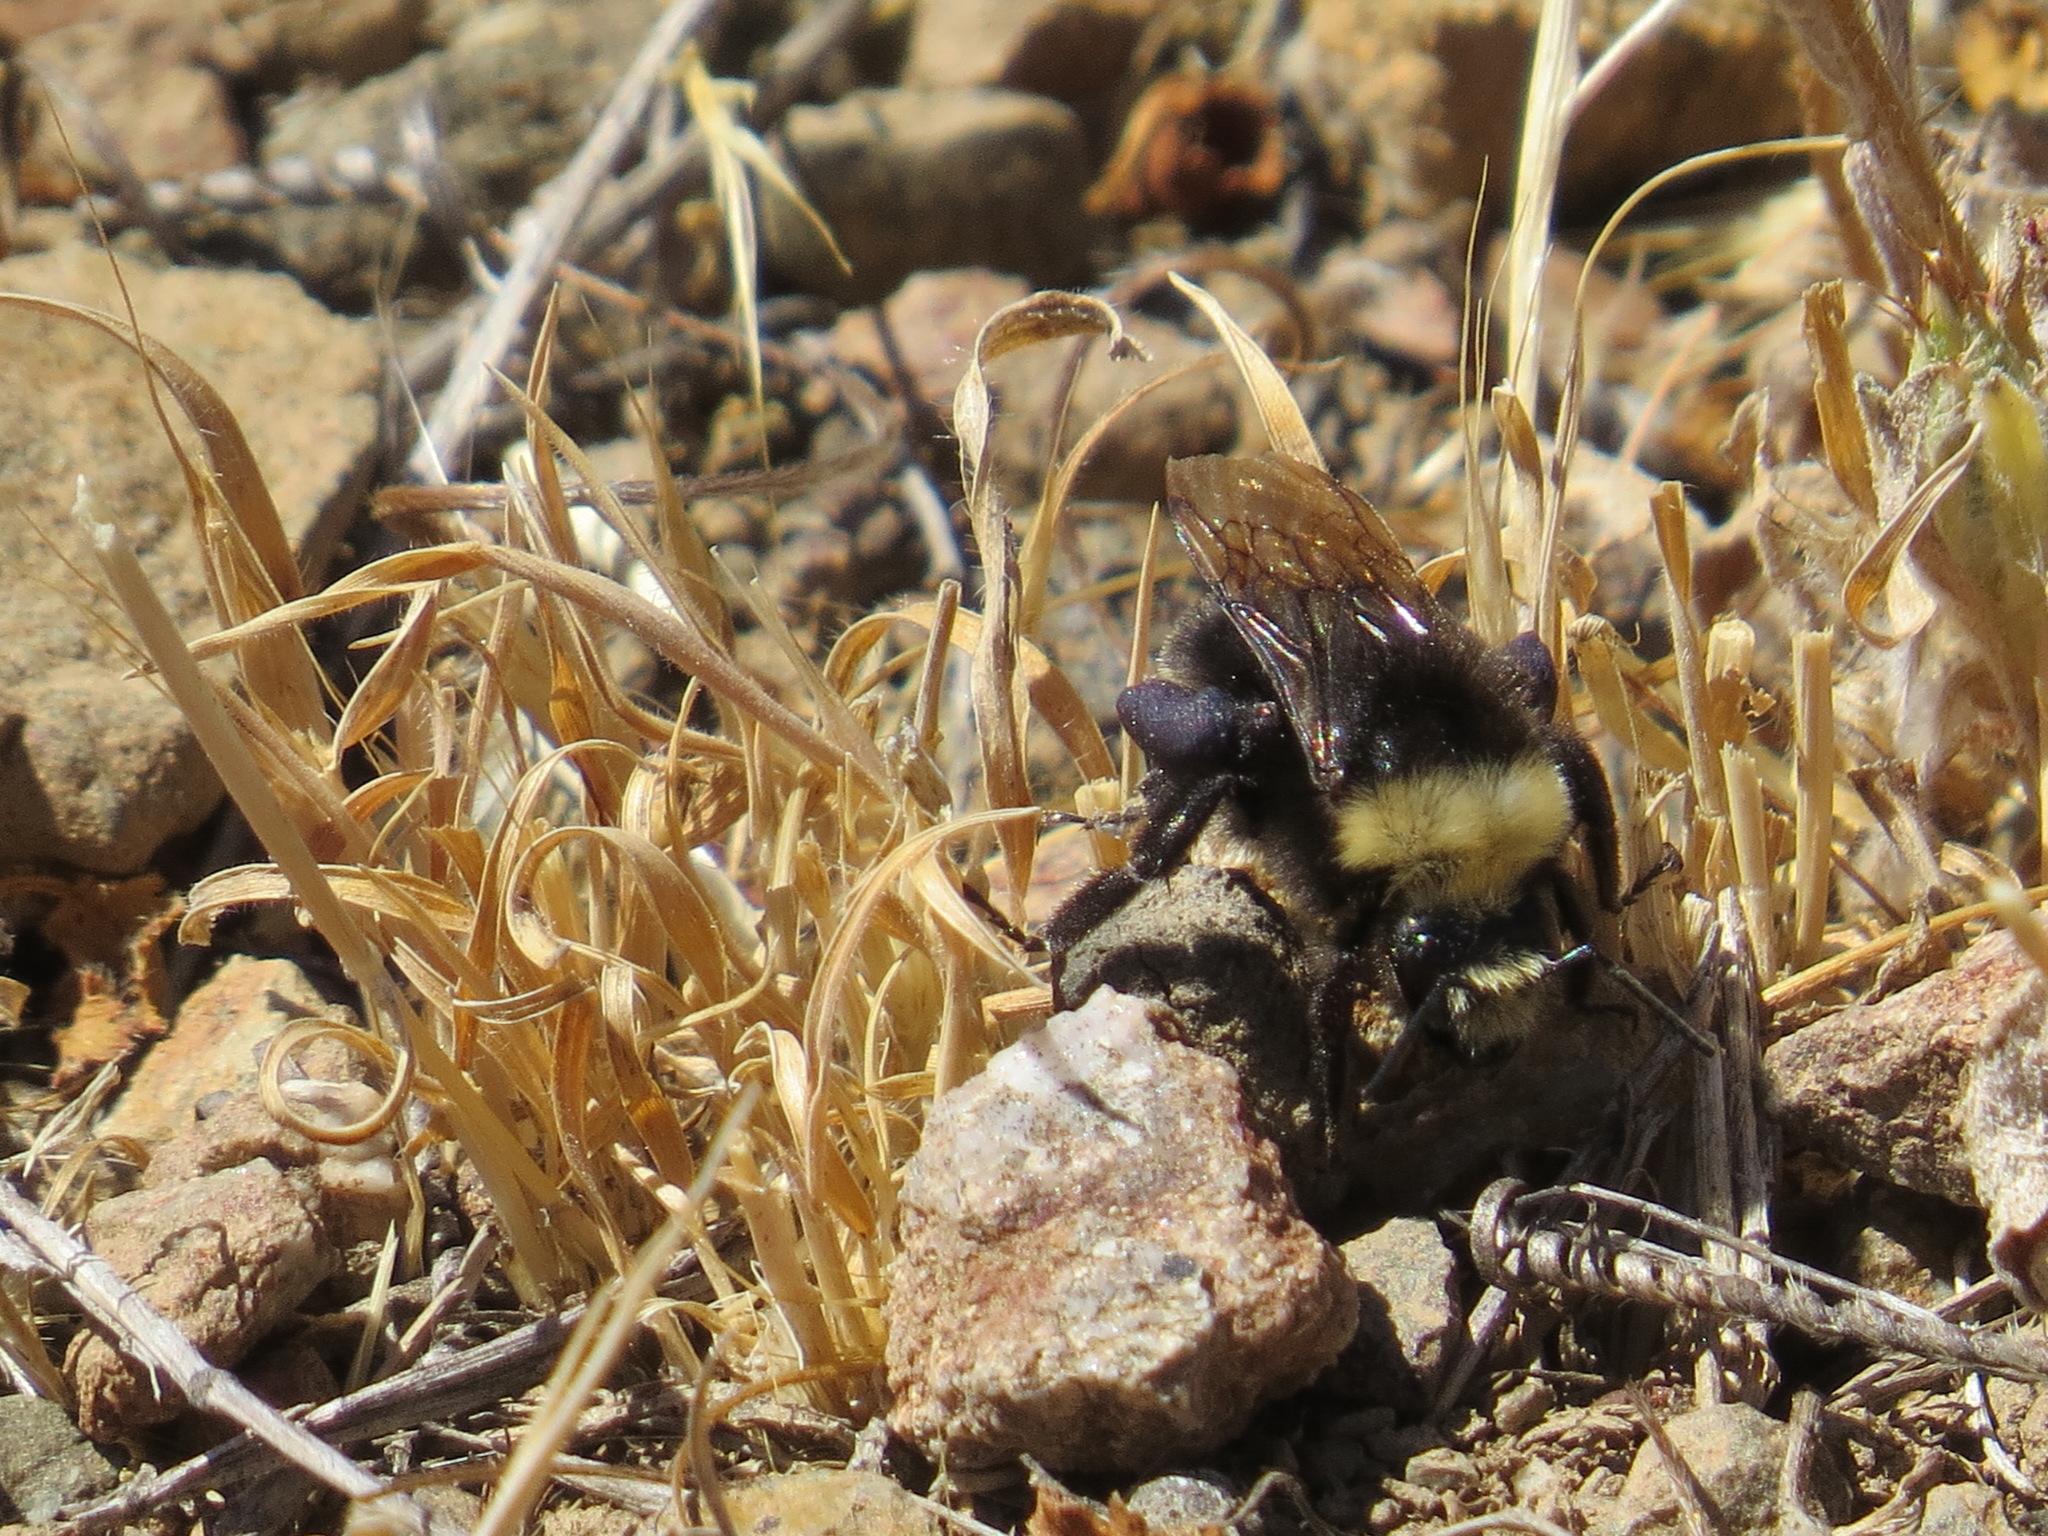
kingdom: Animalia
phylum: Arthropoda
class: Insecta
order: Hymenoptera
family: Apidae
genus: Bombus
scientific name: Bombus vosnesenskii
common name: Vosnesensky bumble bee
